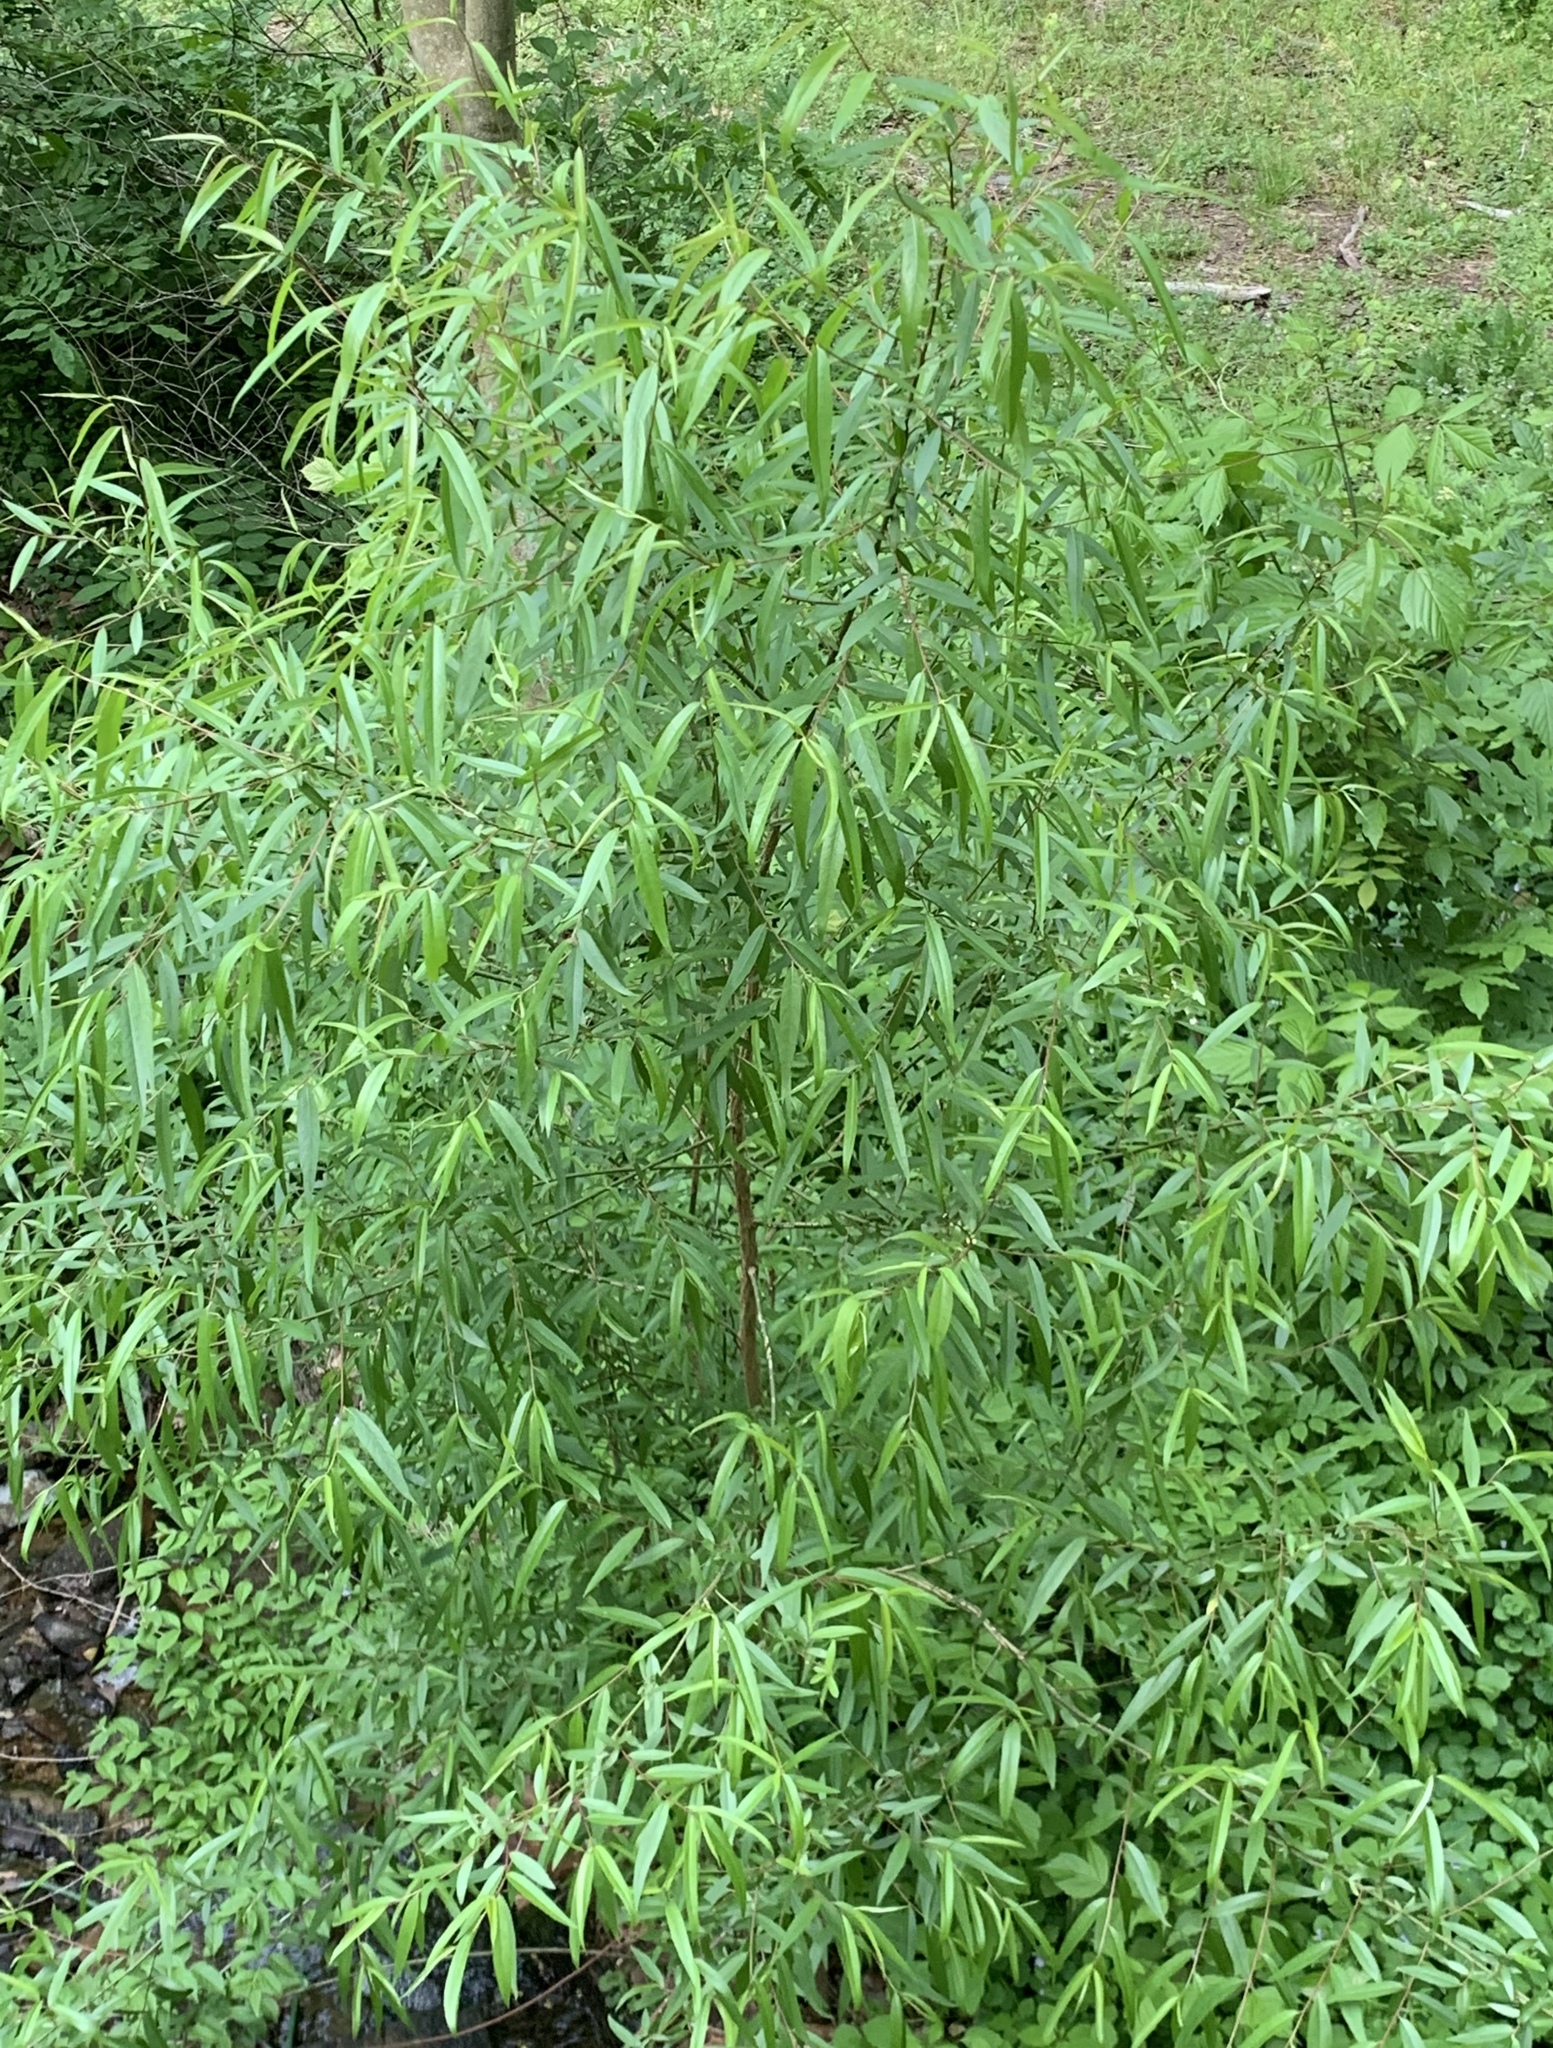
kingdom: Plantae
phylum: Tracheophyta
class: Magnoliopsida
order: Malpighiales
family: Salicaceae
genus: Salix
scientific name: Salix nigra
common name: Black willow
